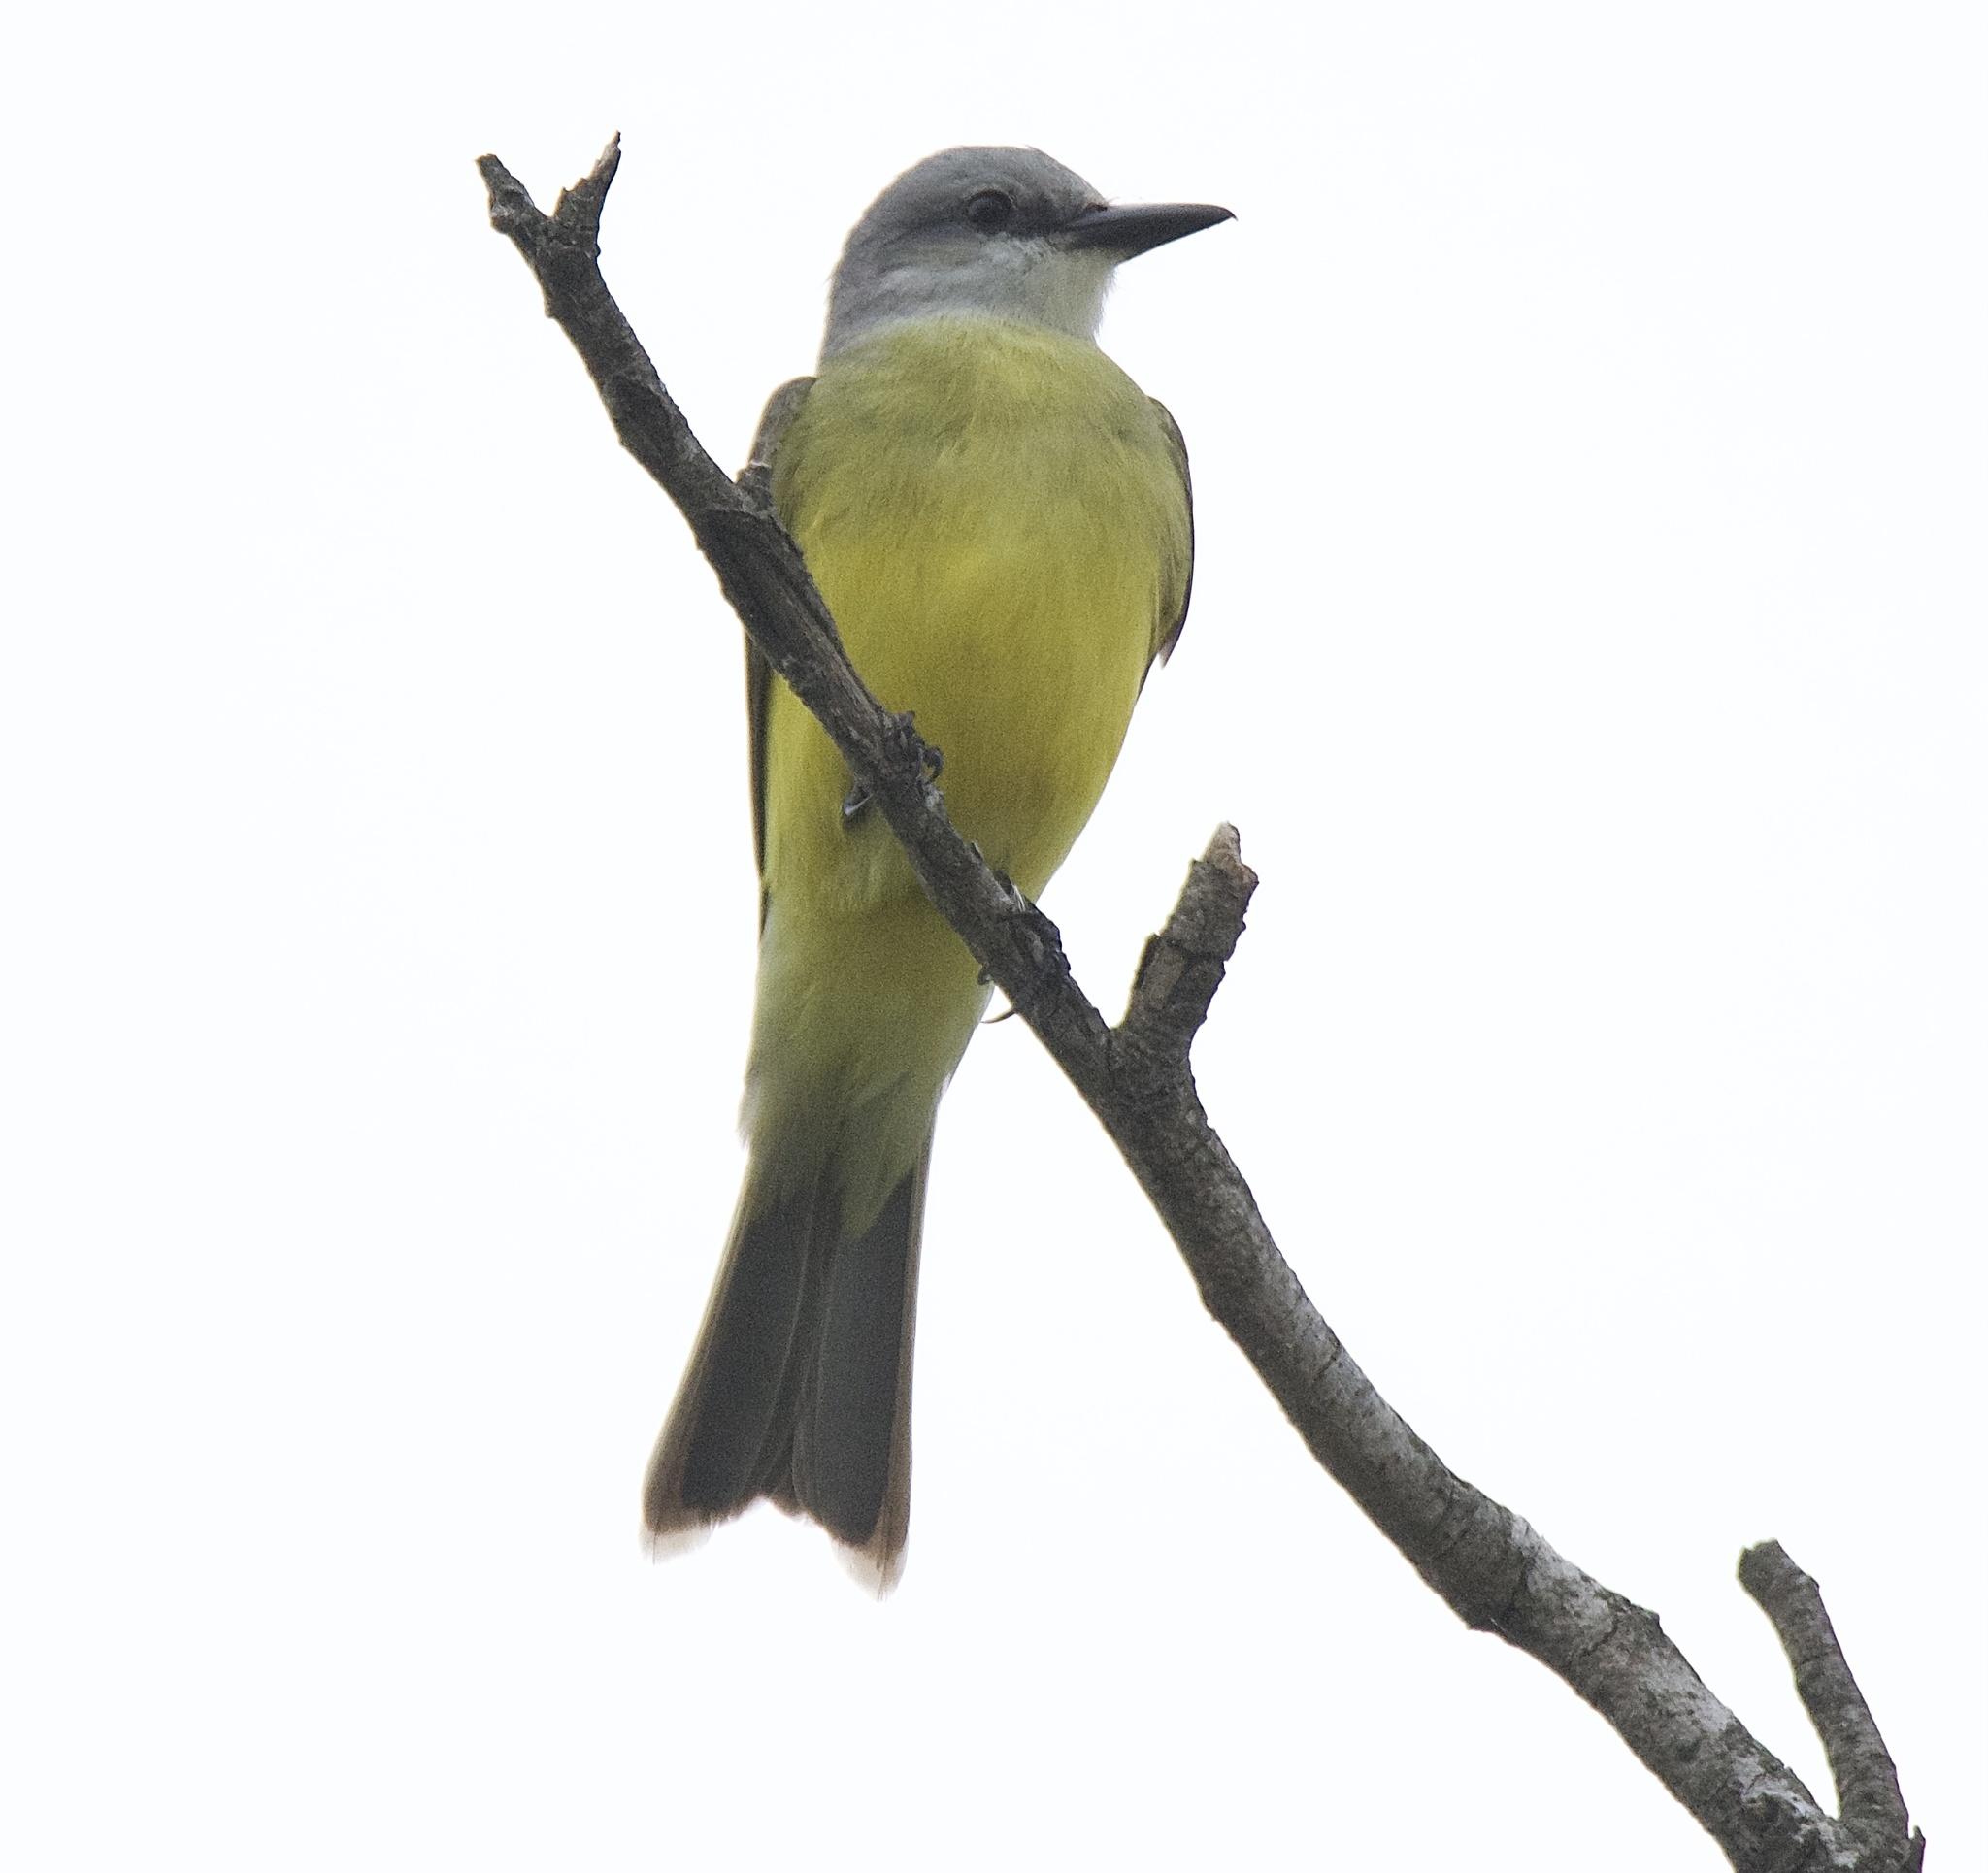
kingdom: Animalia
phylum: Chordata
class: Aves
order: Passeriformes
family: Tyrannidae
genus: Tyrannus
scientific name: Tyrannus melancholicus
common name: Tropical kingbird
